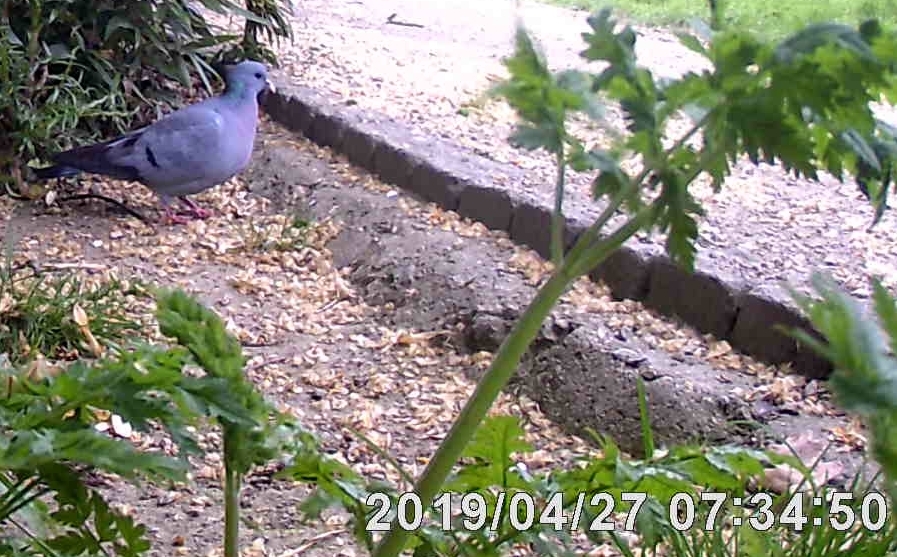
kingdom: Animalia
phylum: Chordata
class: Aves
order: Columbiformes
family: Columbidae
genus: Columba
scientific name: Columba oenas
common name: Stock dove
